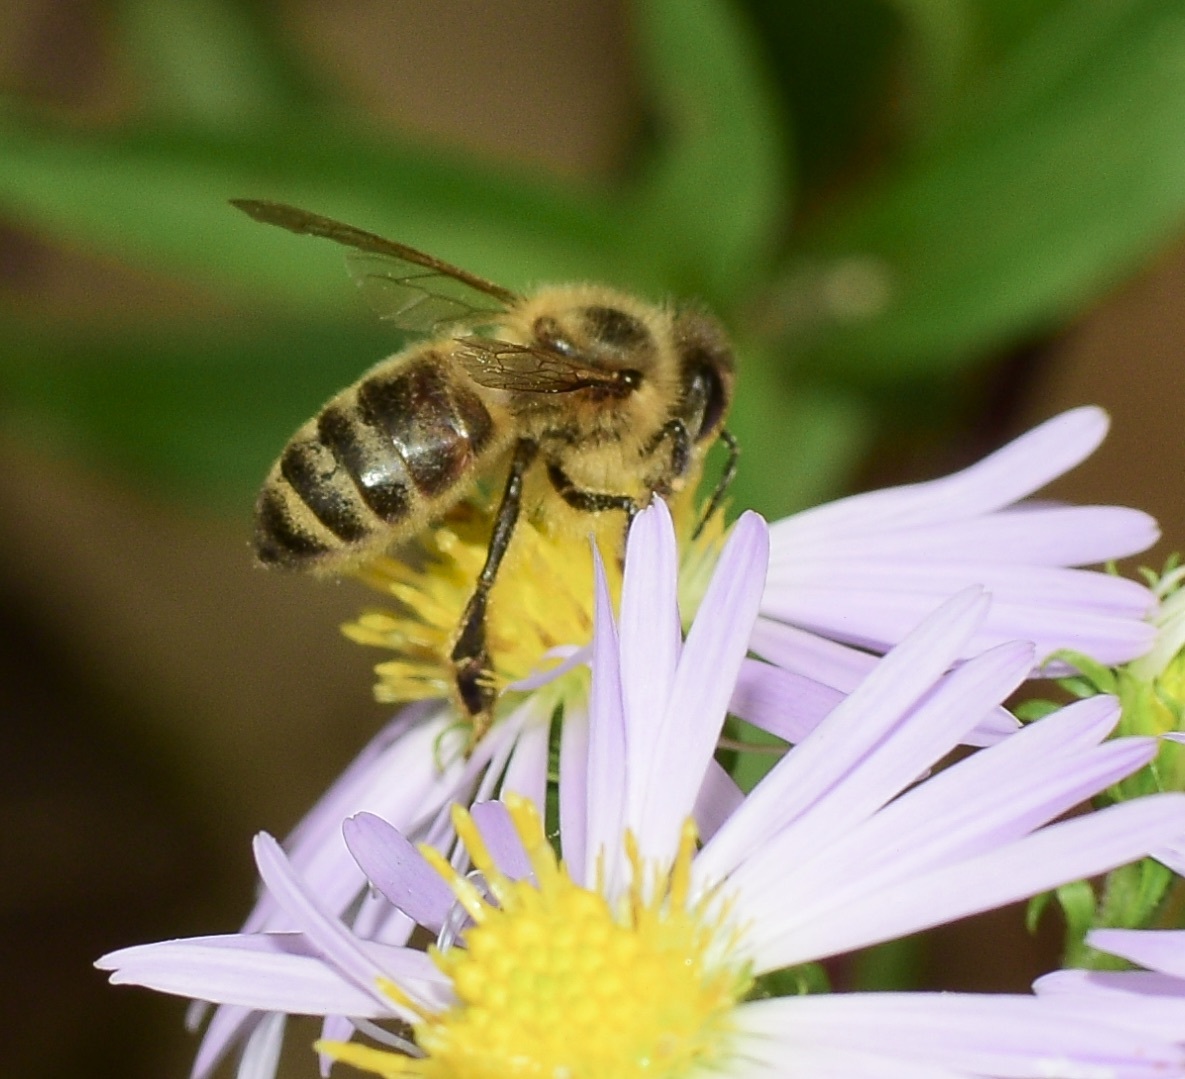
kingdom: Animalia
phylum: Arthropoda
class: Insecta
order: Hymenoptera
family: Apidae
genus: Apis
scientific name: Apis mellifera
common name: Honey bee
